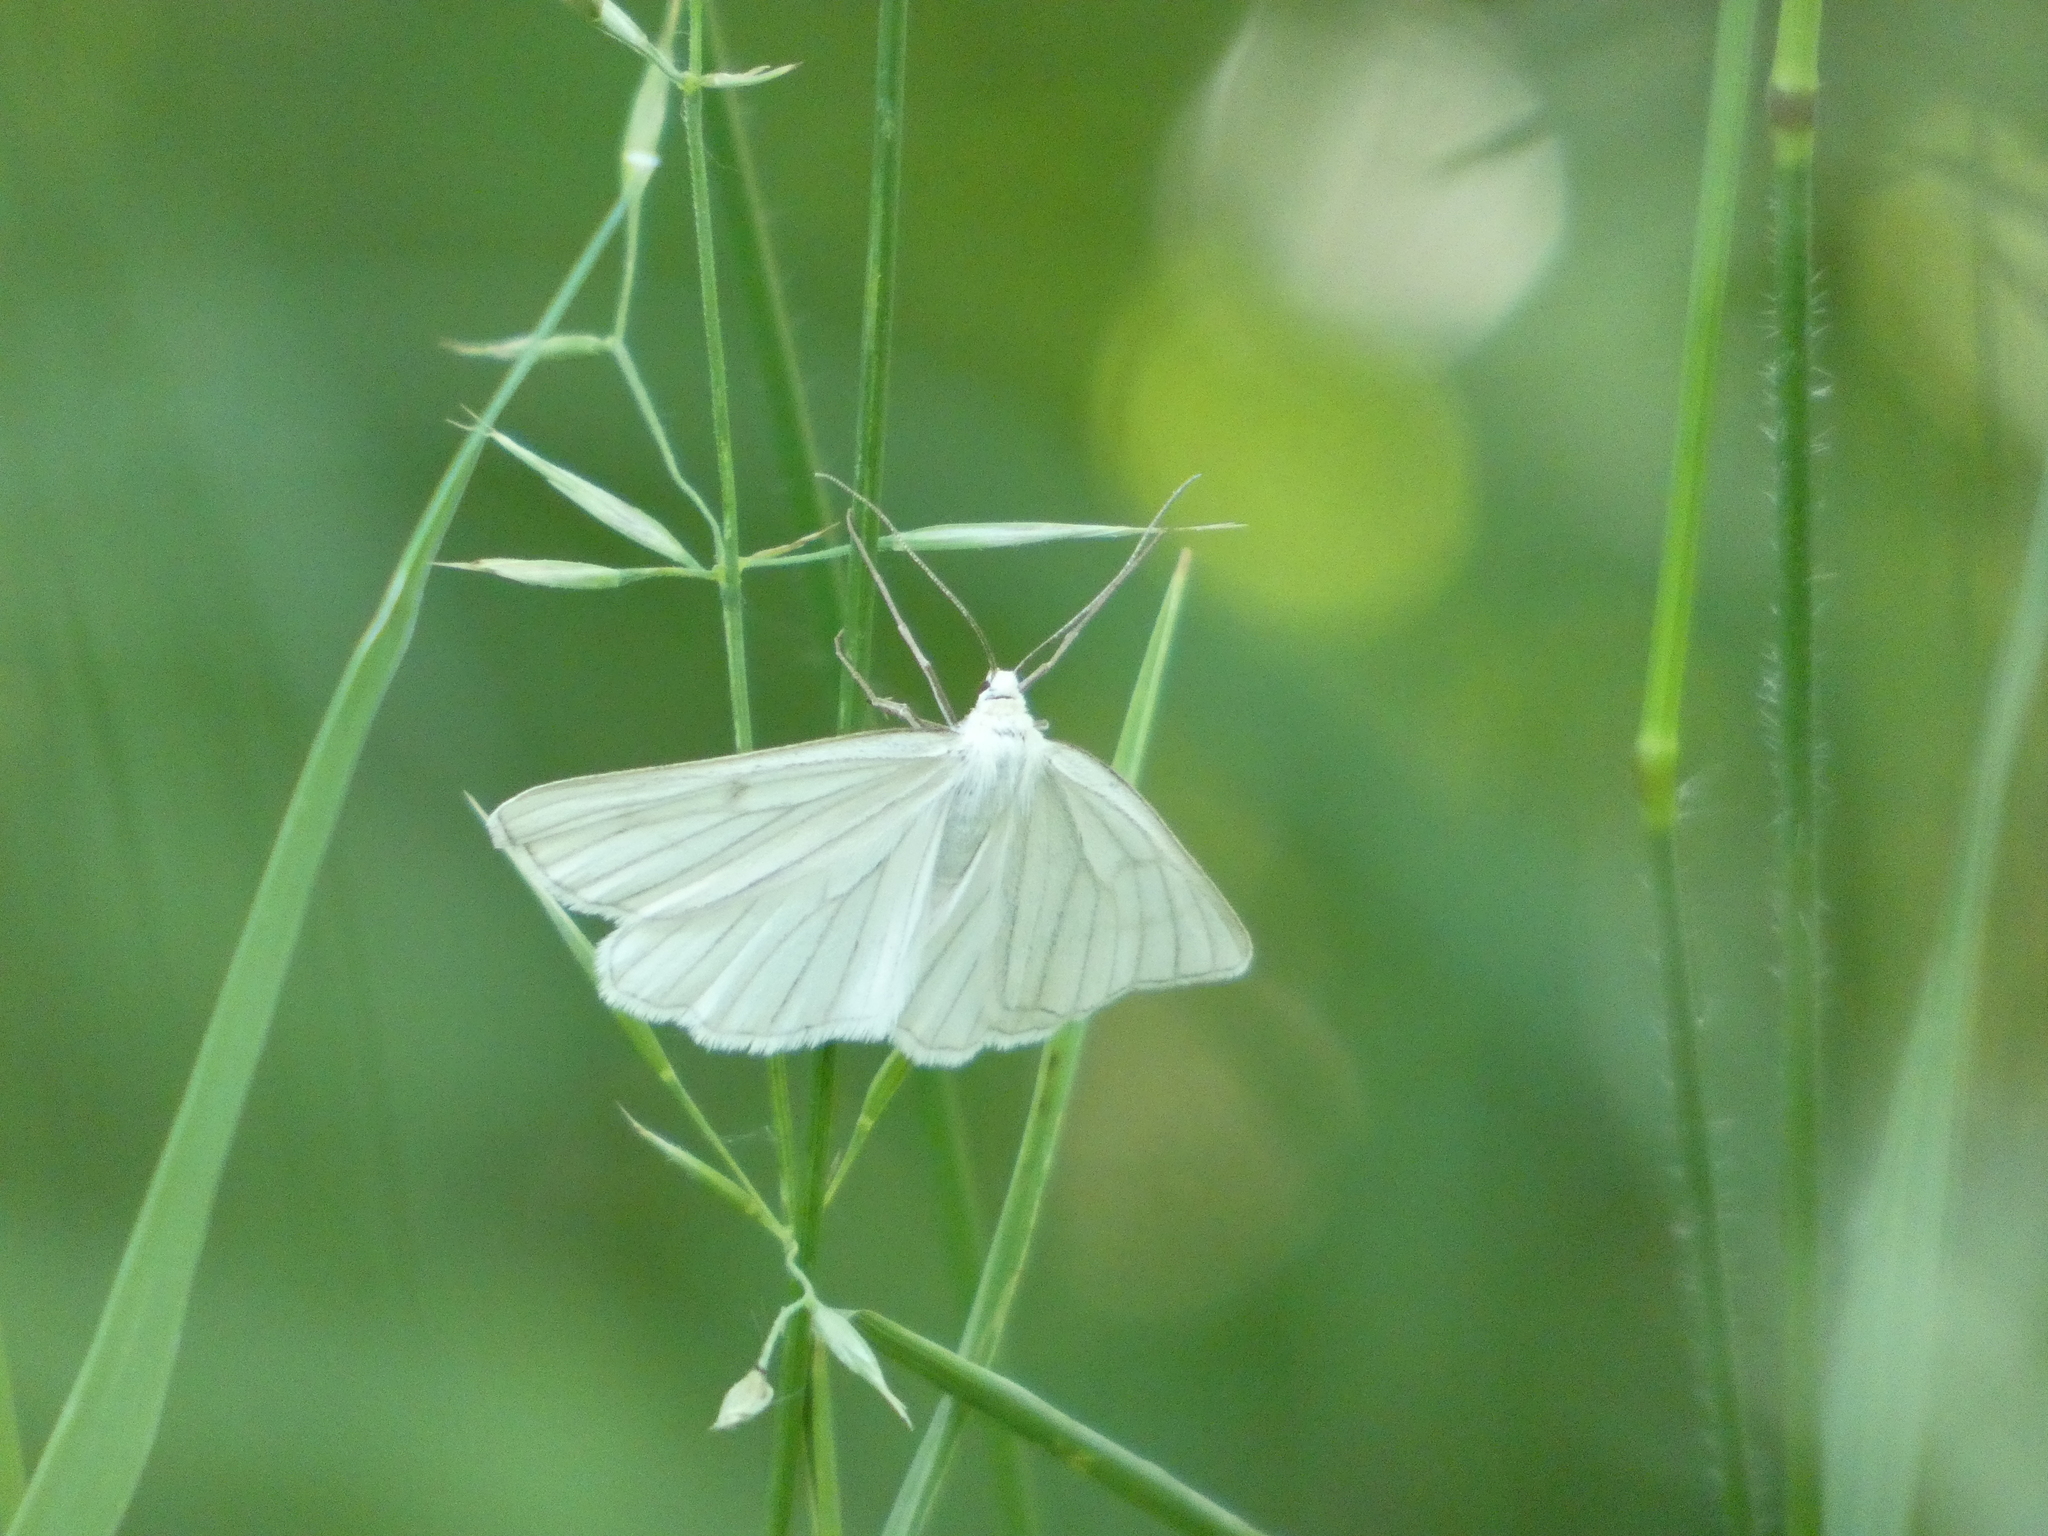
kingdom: Animalia
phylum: Arthropoda
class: Insecta
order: Lepidoptera
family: Geometridae
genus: Siona
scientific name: Siona lineata
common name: Black-veined moth
